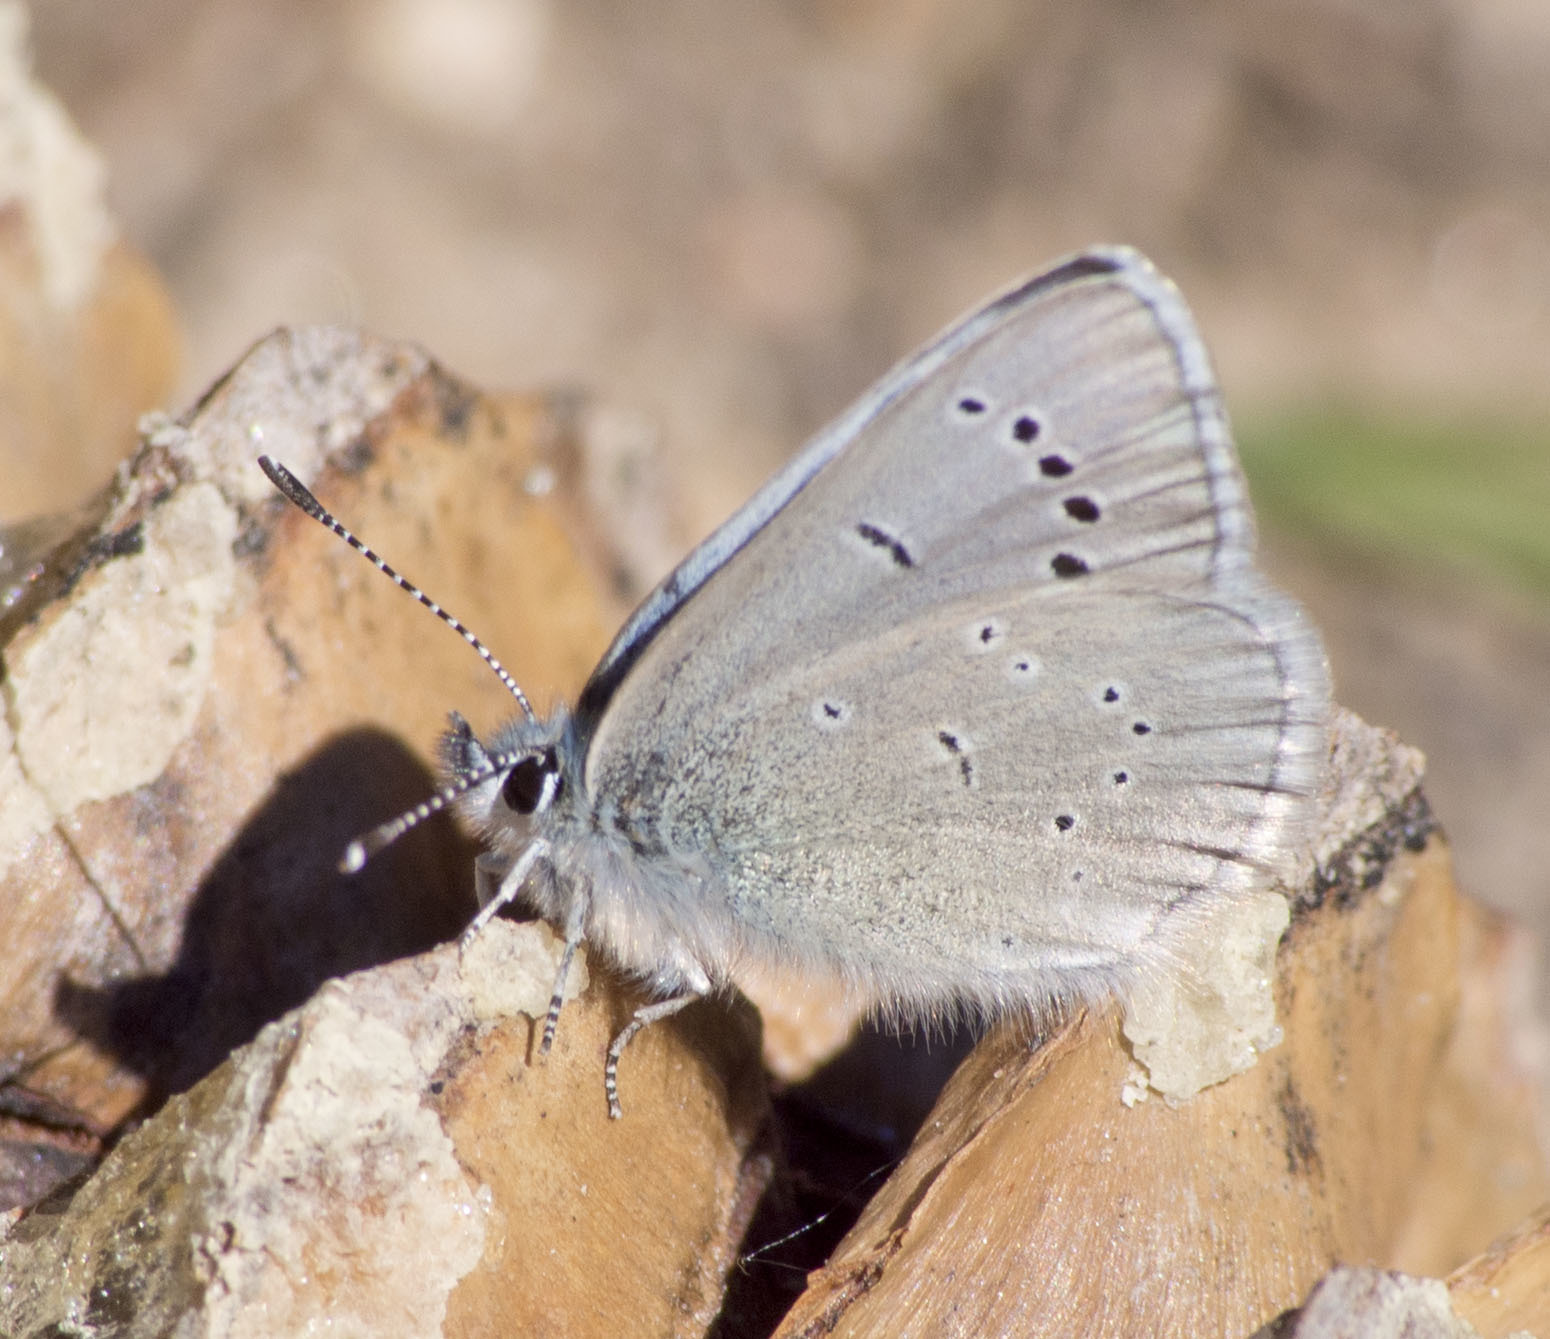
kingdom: Animalia
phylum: Arthropoda
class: Insecta
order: Lepidoptera
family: Lycaenidae
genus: Glaucopsyche
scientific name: Glaucopsyche lygdamus
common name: Silvery blue
